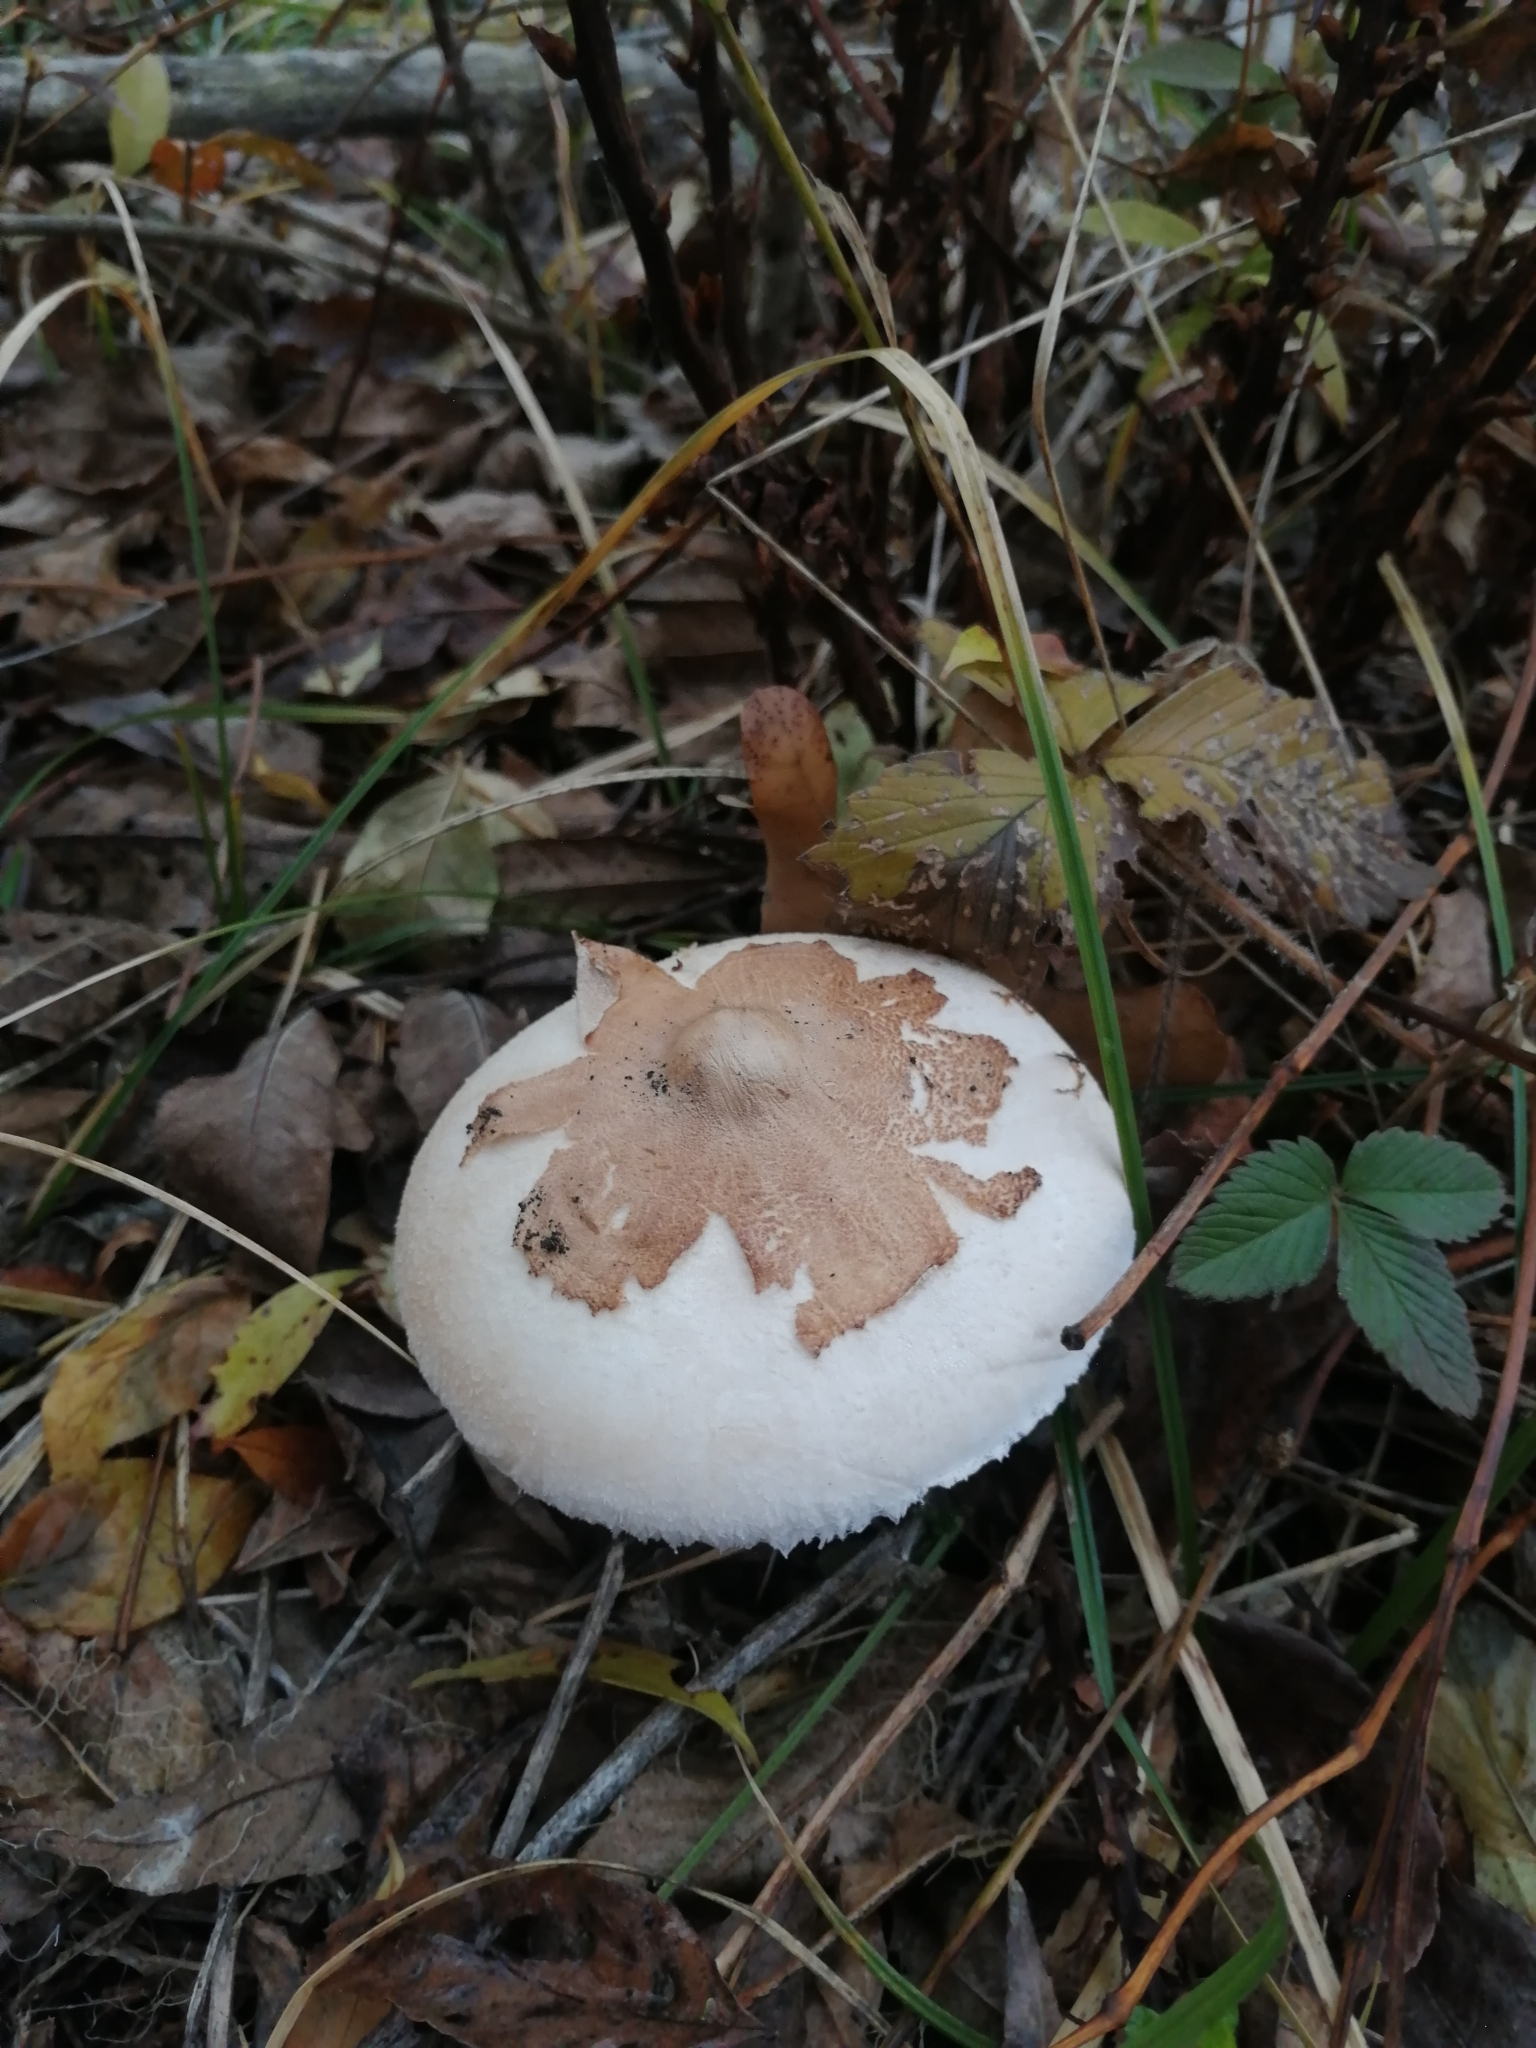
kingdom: Fungi
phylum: Basidiomycota
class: Agaricomycetes
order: Agaricales
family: Agaricaceae
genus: Macrolepiota
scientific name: Macrolepiota mastoidea
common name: Slender parasol
